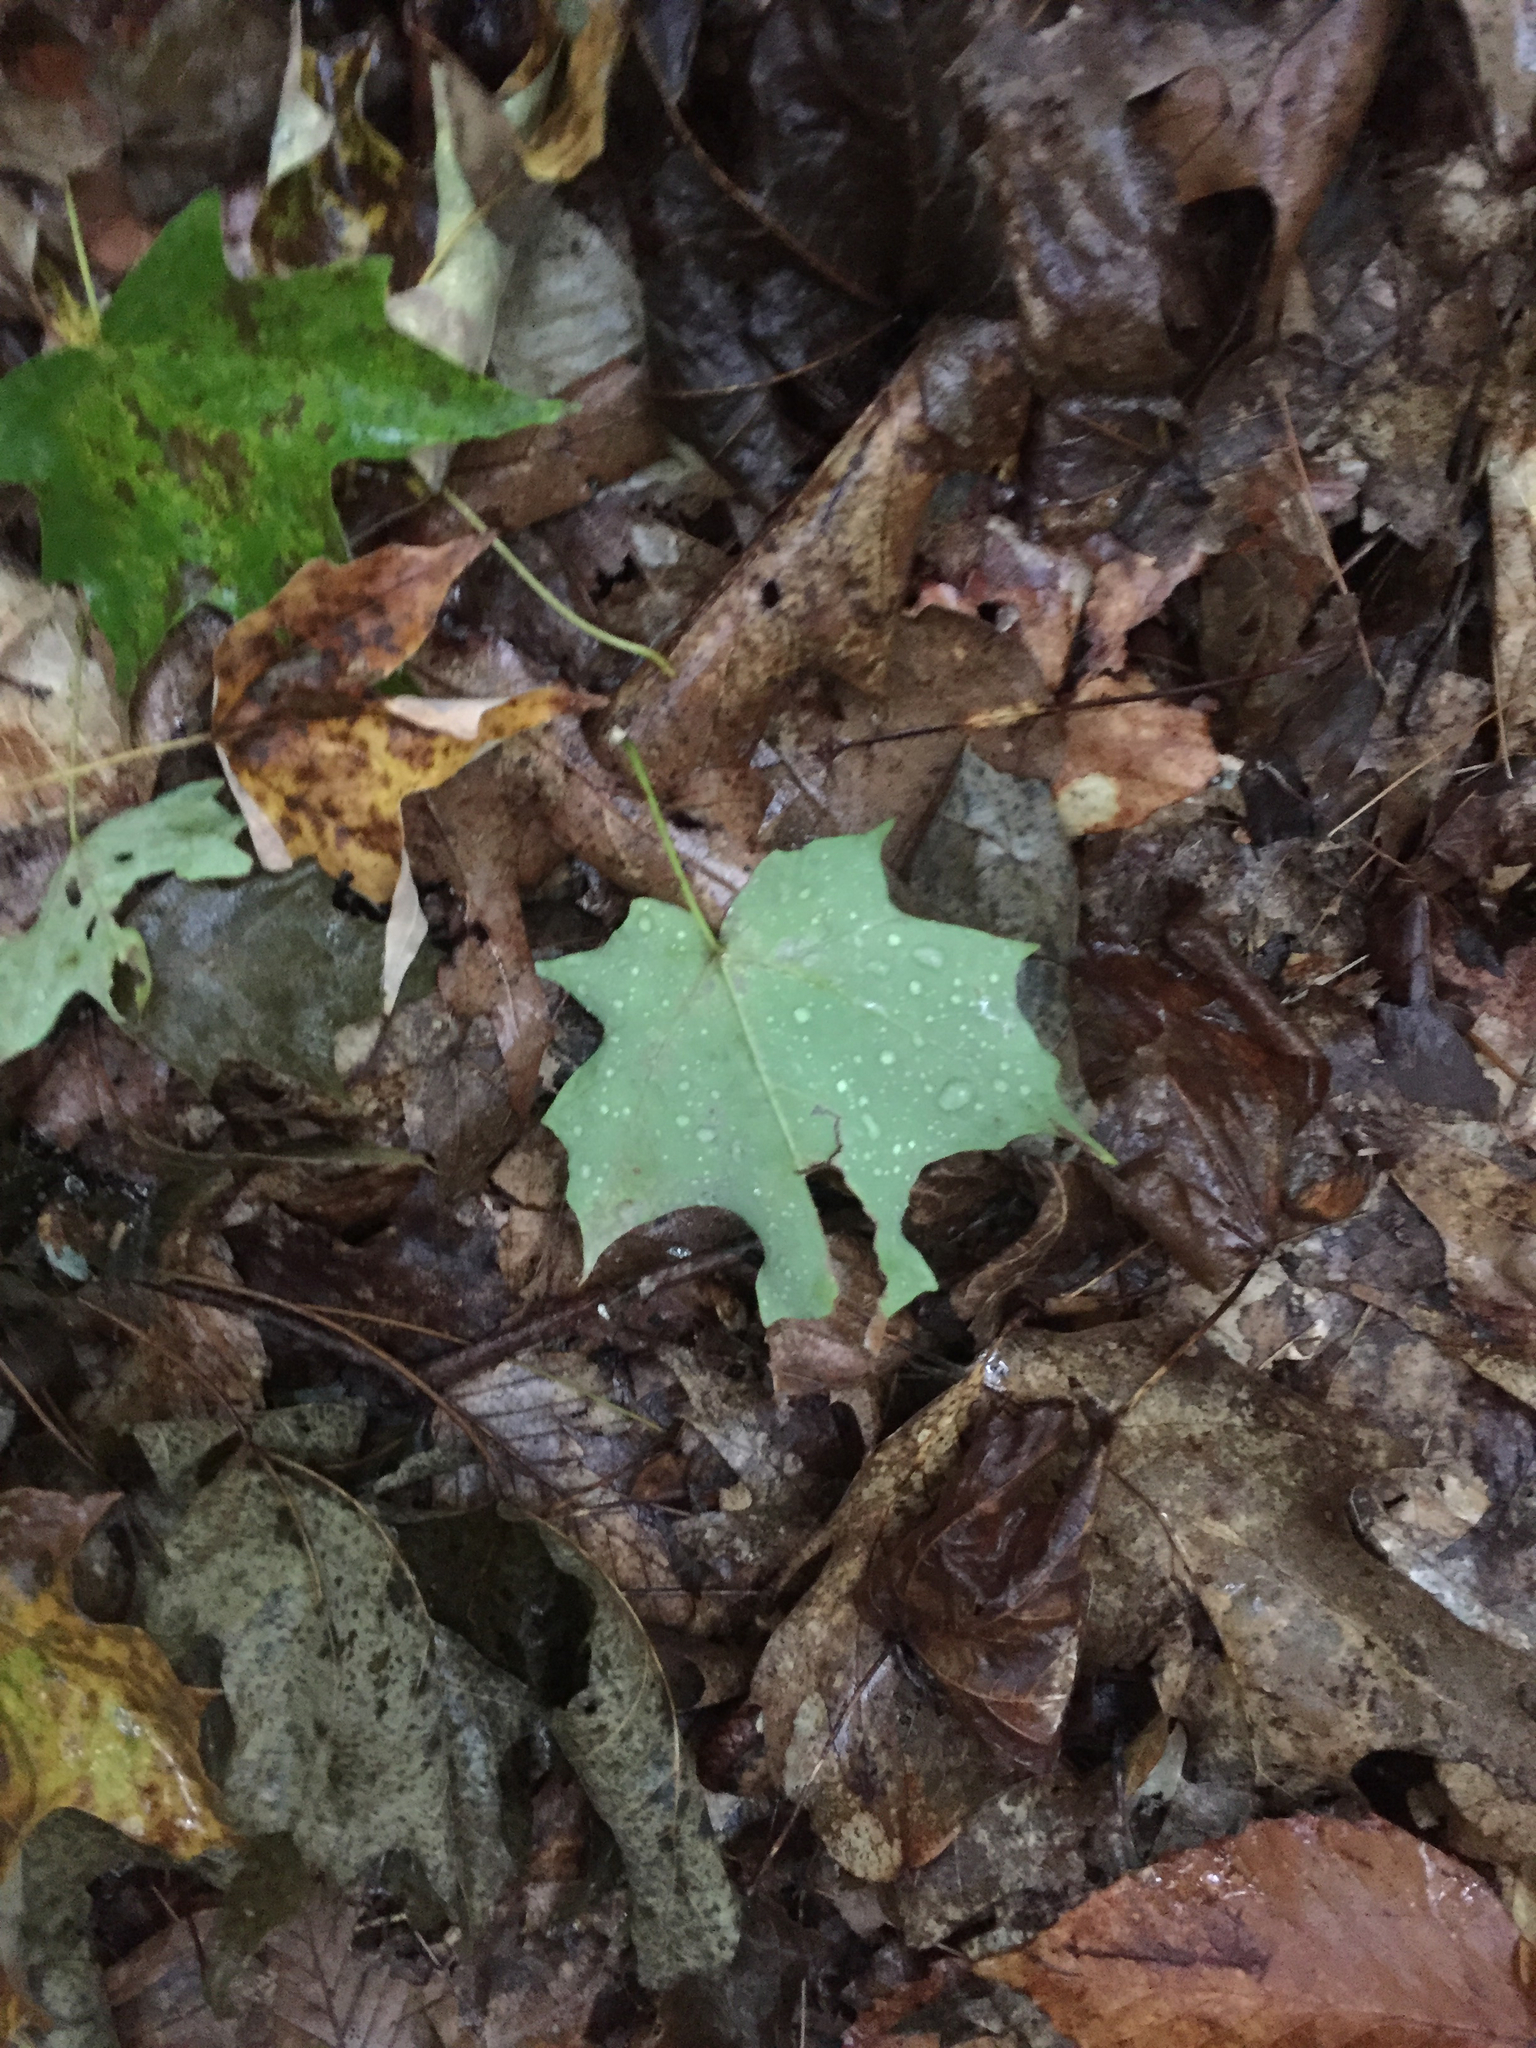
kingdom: Plantae
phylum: Tracheophyta
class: Magnoliopsida
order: Sapindales
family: Sapindaceae
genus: Acer
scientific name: Acer saccharum
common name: Sugar maple
